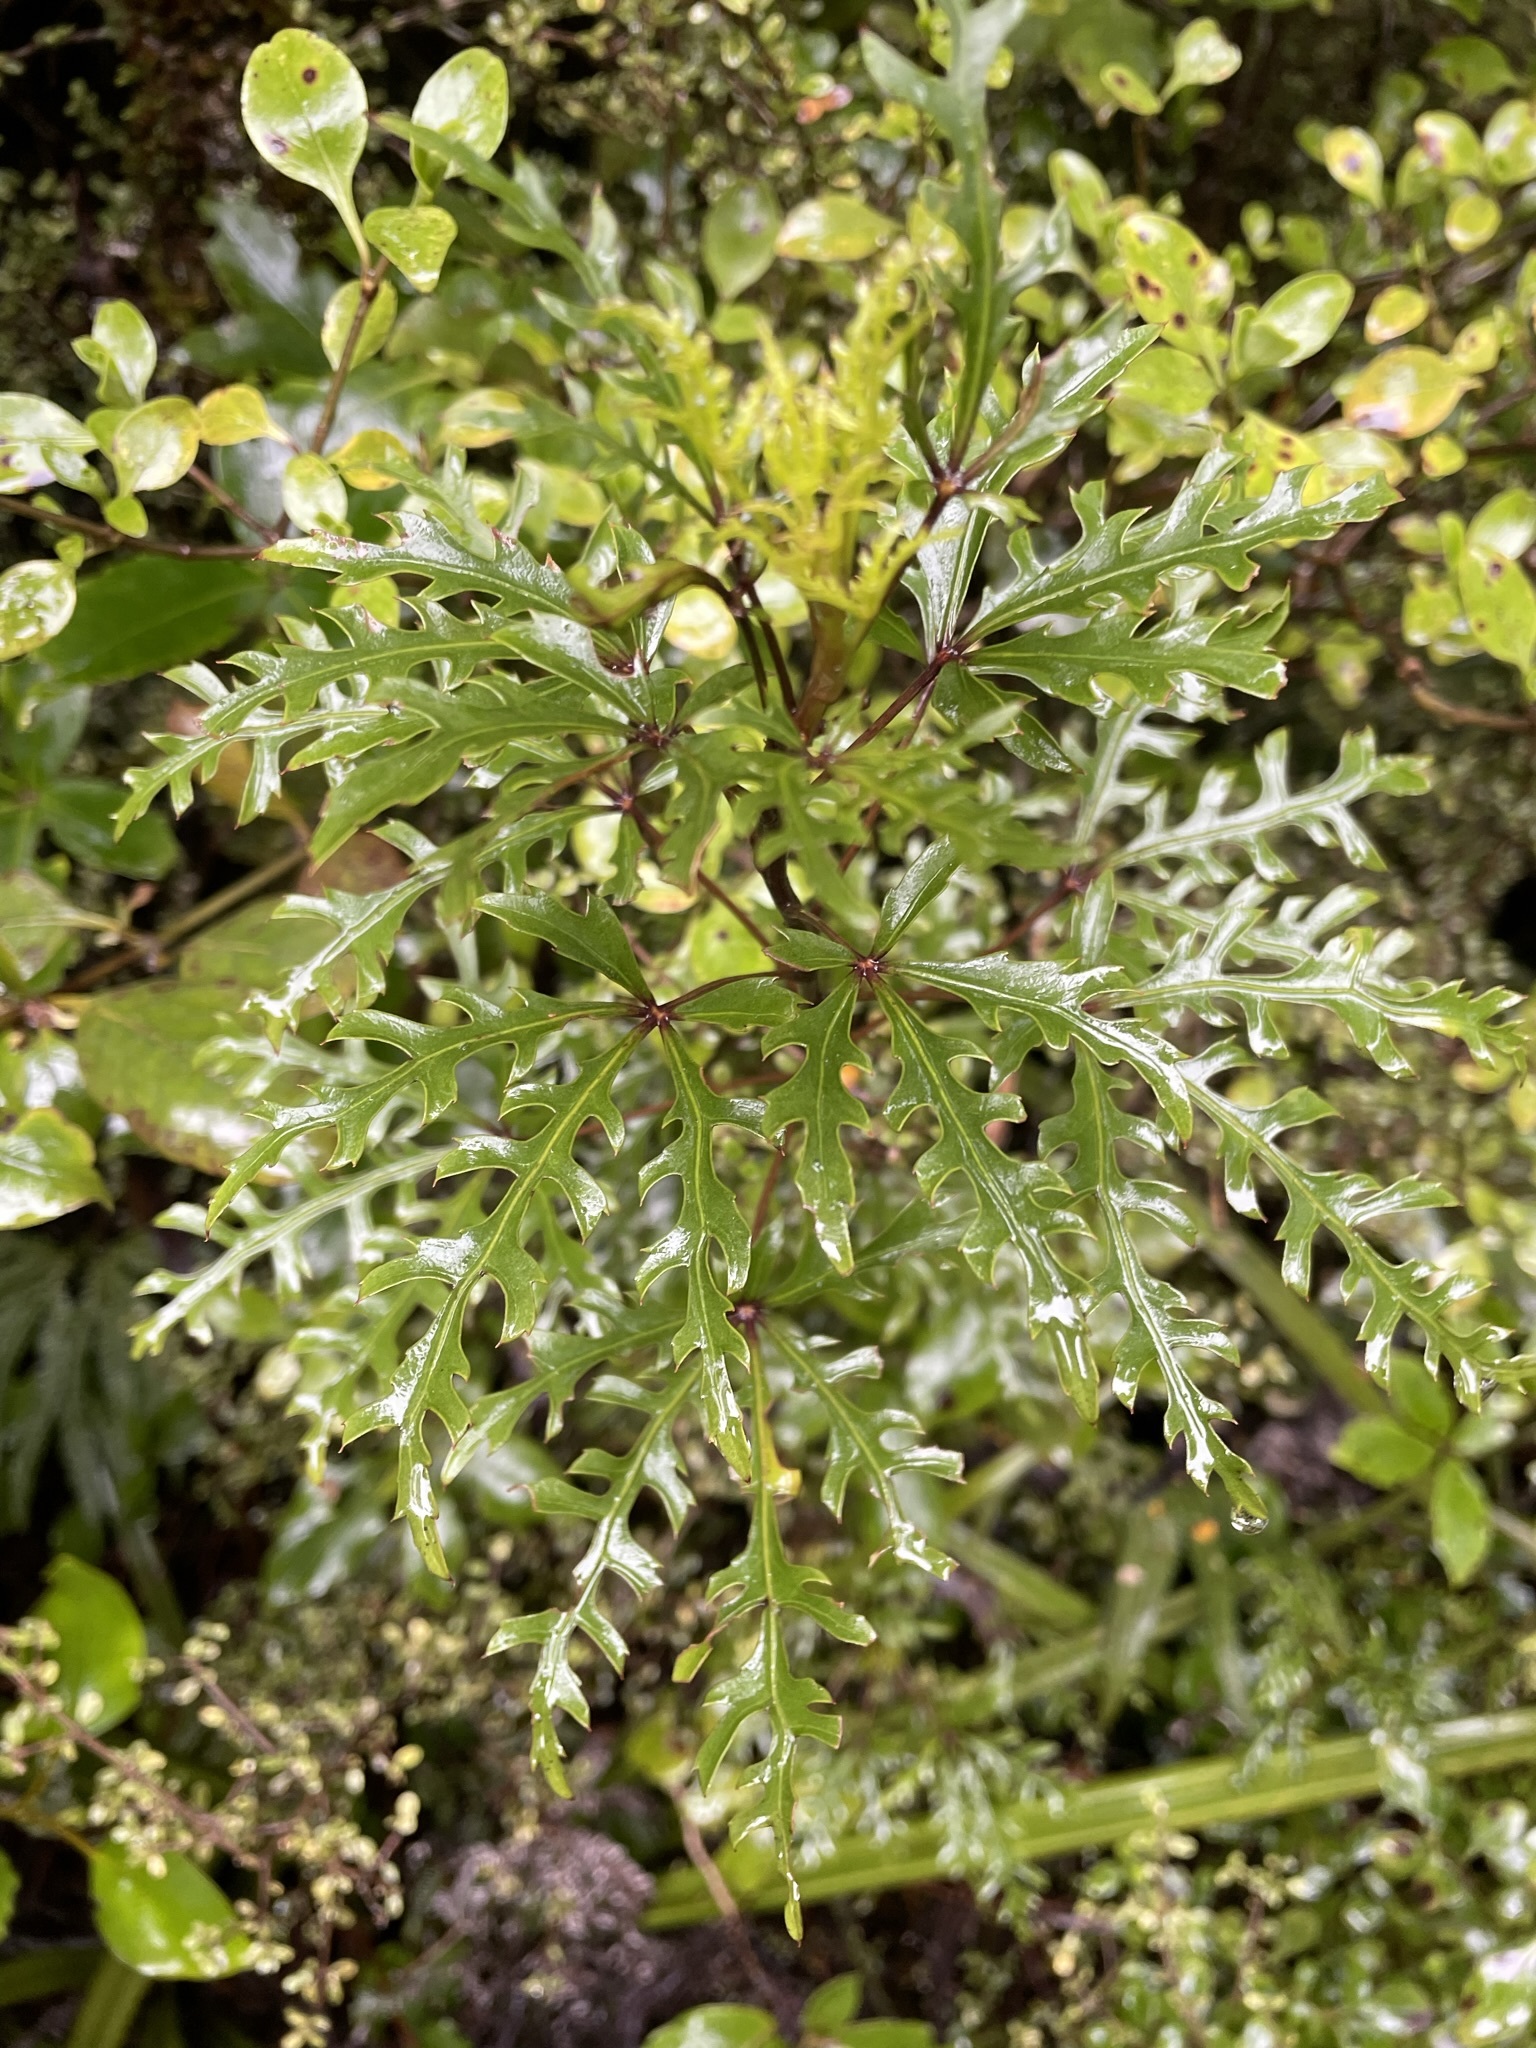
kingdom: Plantae
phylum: Tracheophyta
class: Magnoliopsida
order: Apiales
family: Araliaceae
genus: Raukaua
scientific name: Raukaua simplex
